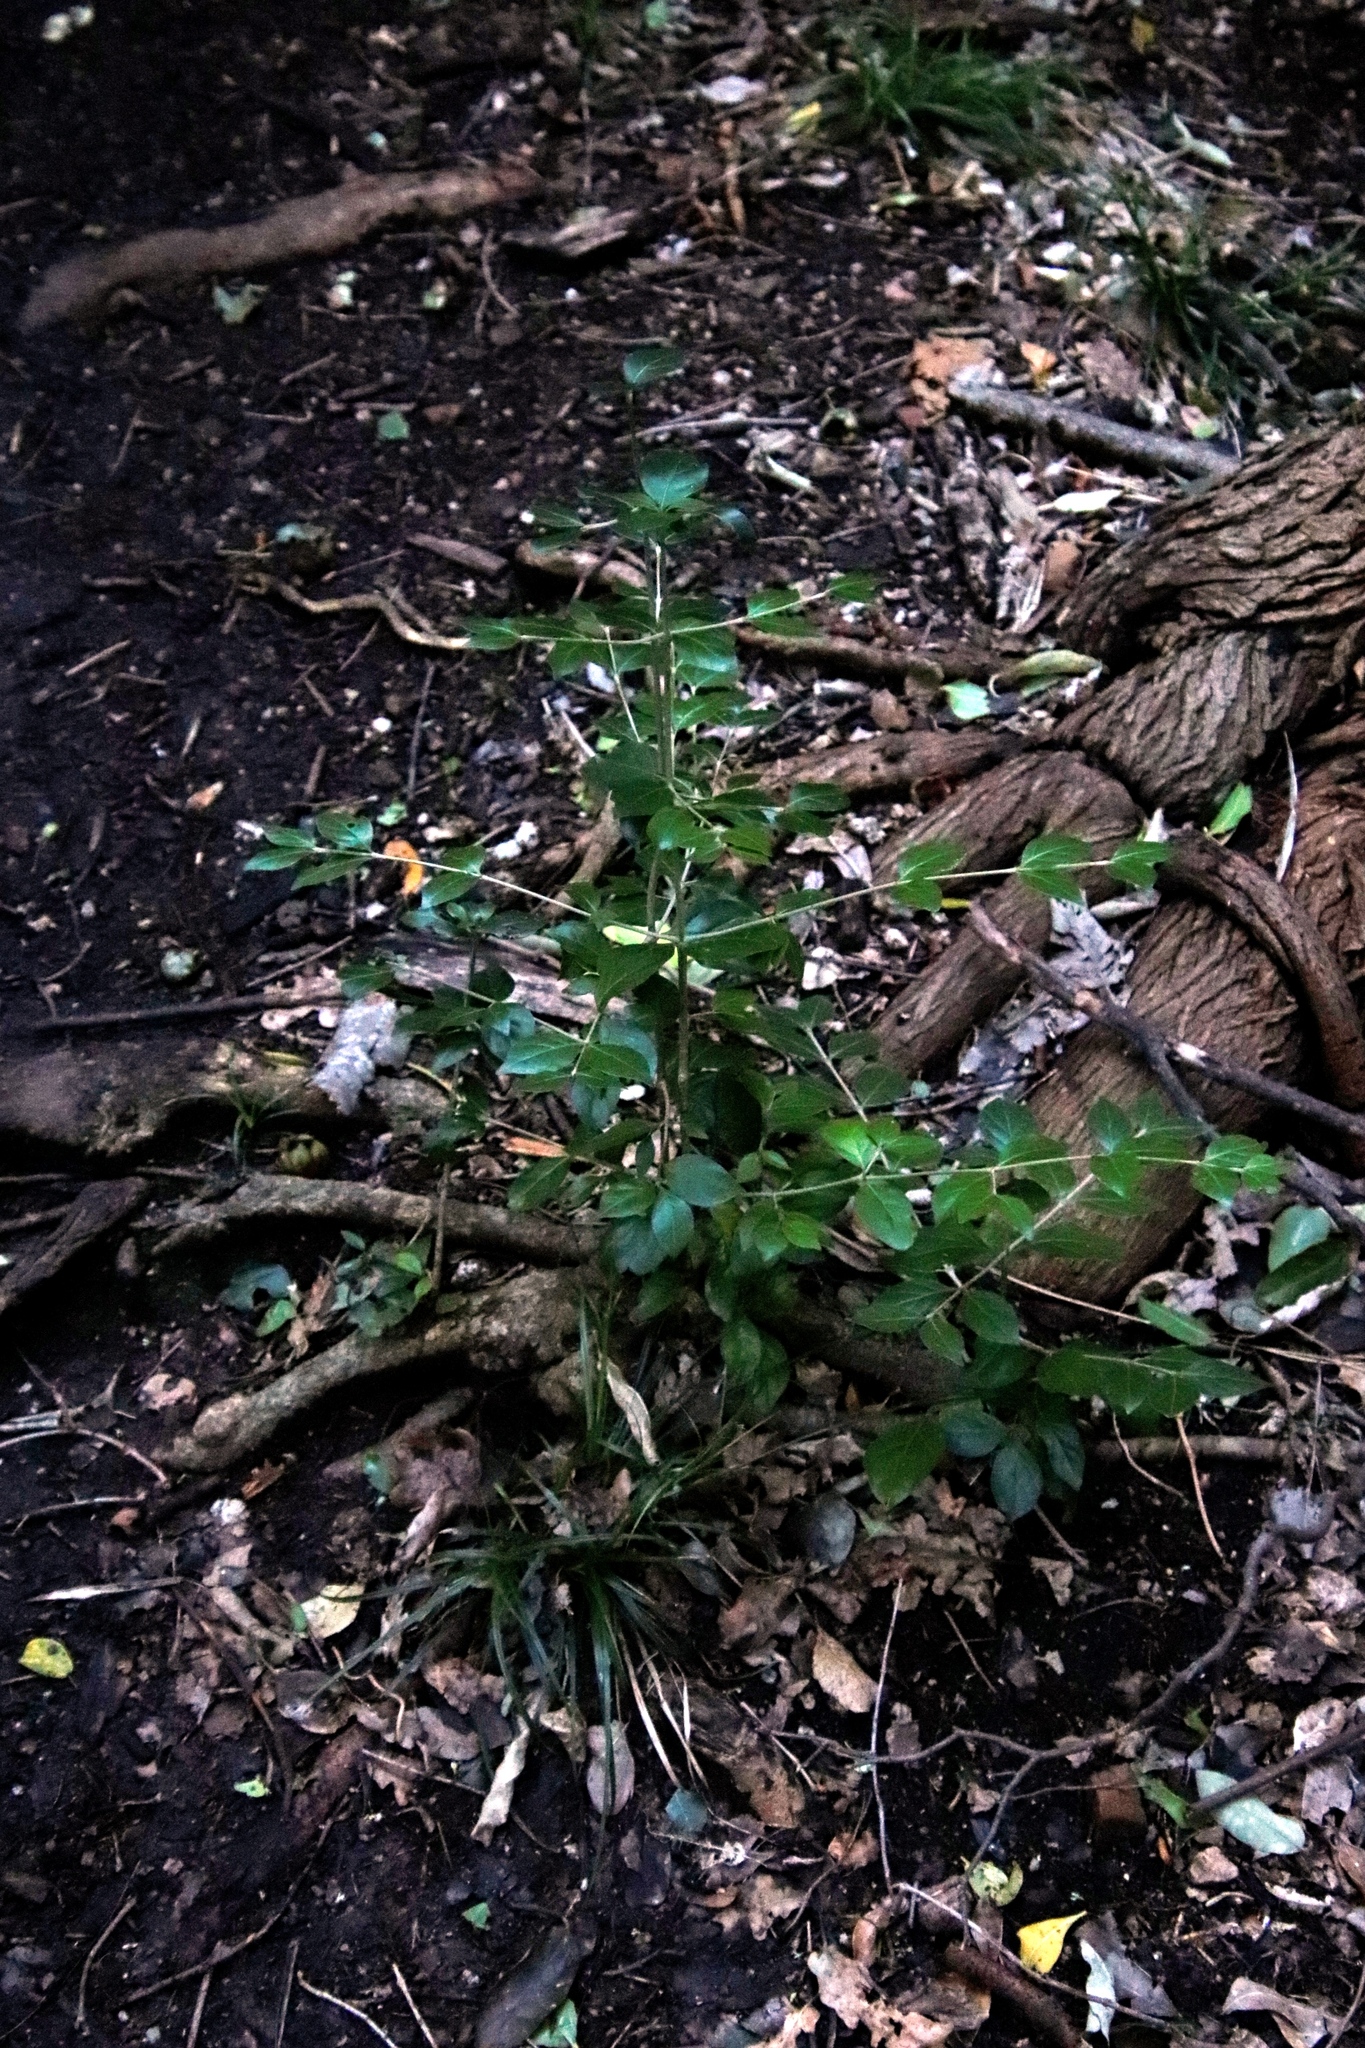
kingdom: Plantae
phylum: Tracheophyta
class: Magnoliopsida
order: Gentianales
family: Rubiaceae
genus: Afrocanthium
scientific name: Afrocanthium mundianum
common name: Rock-alder
